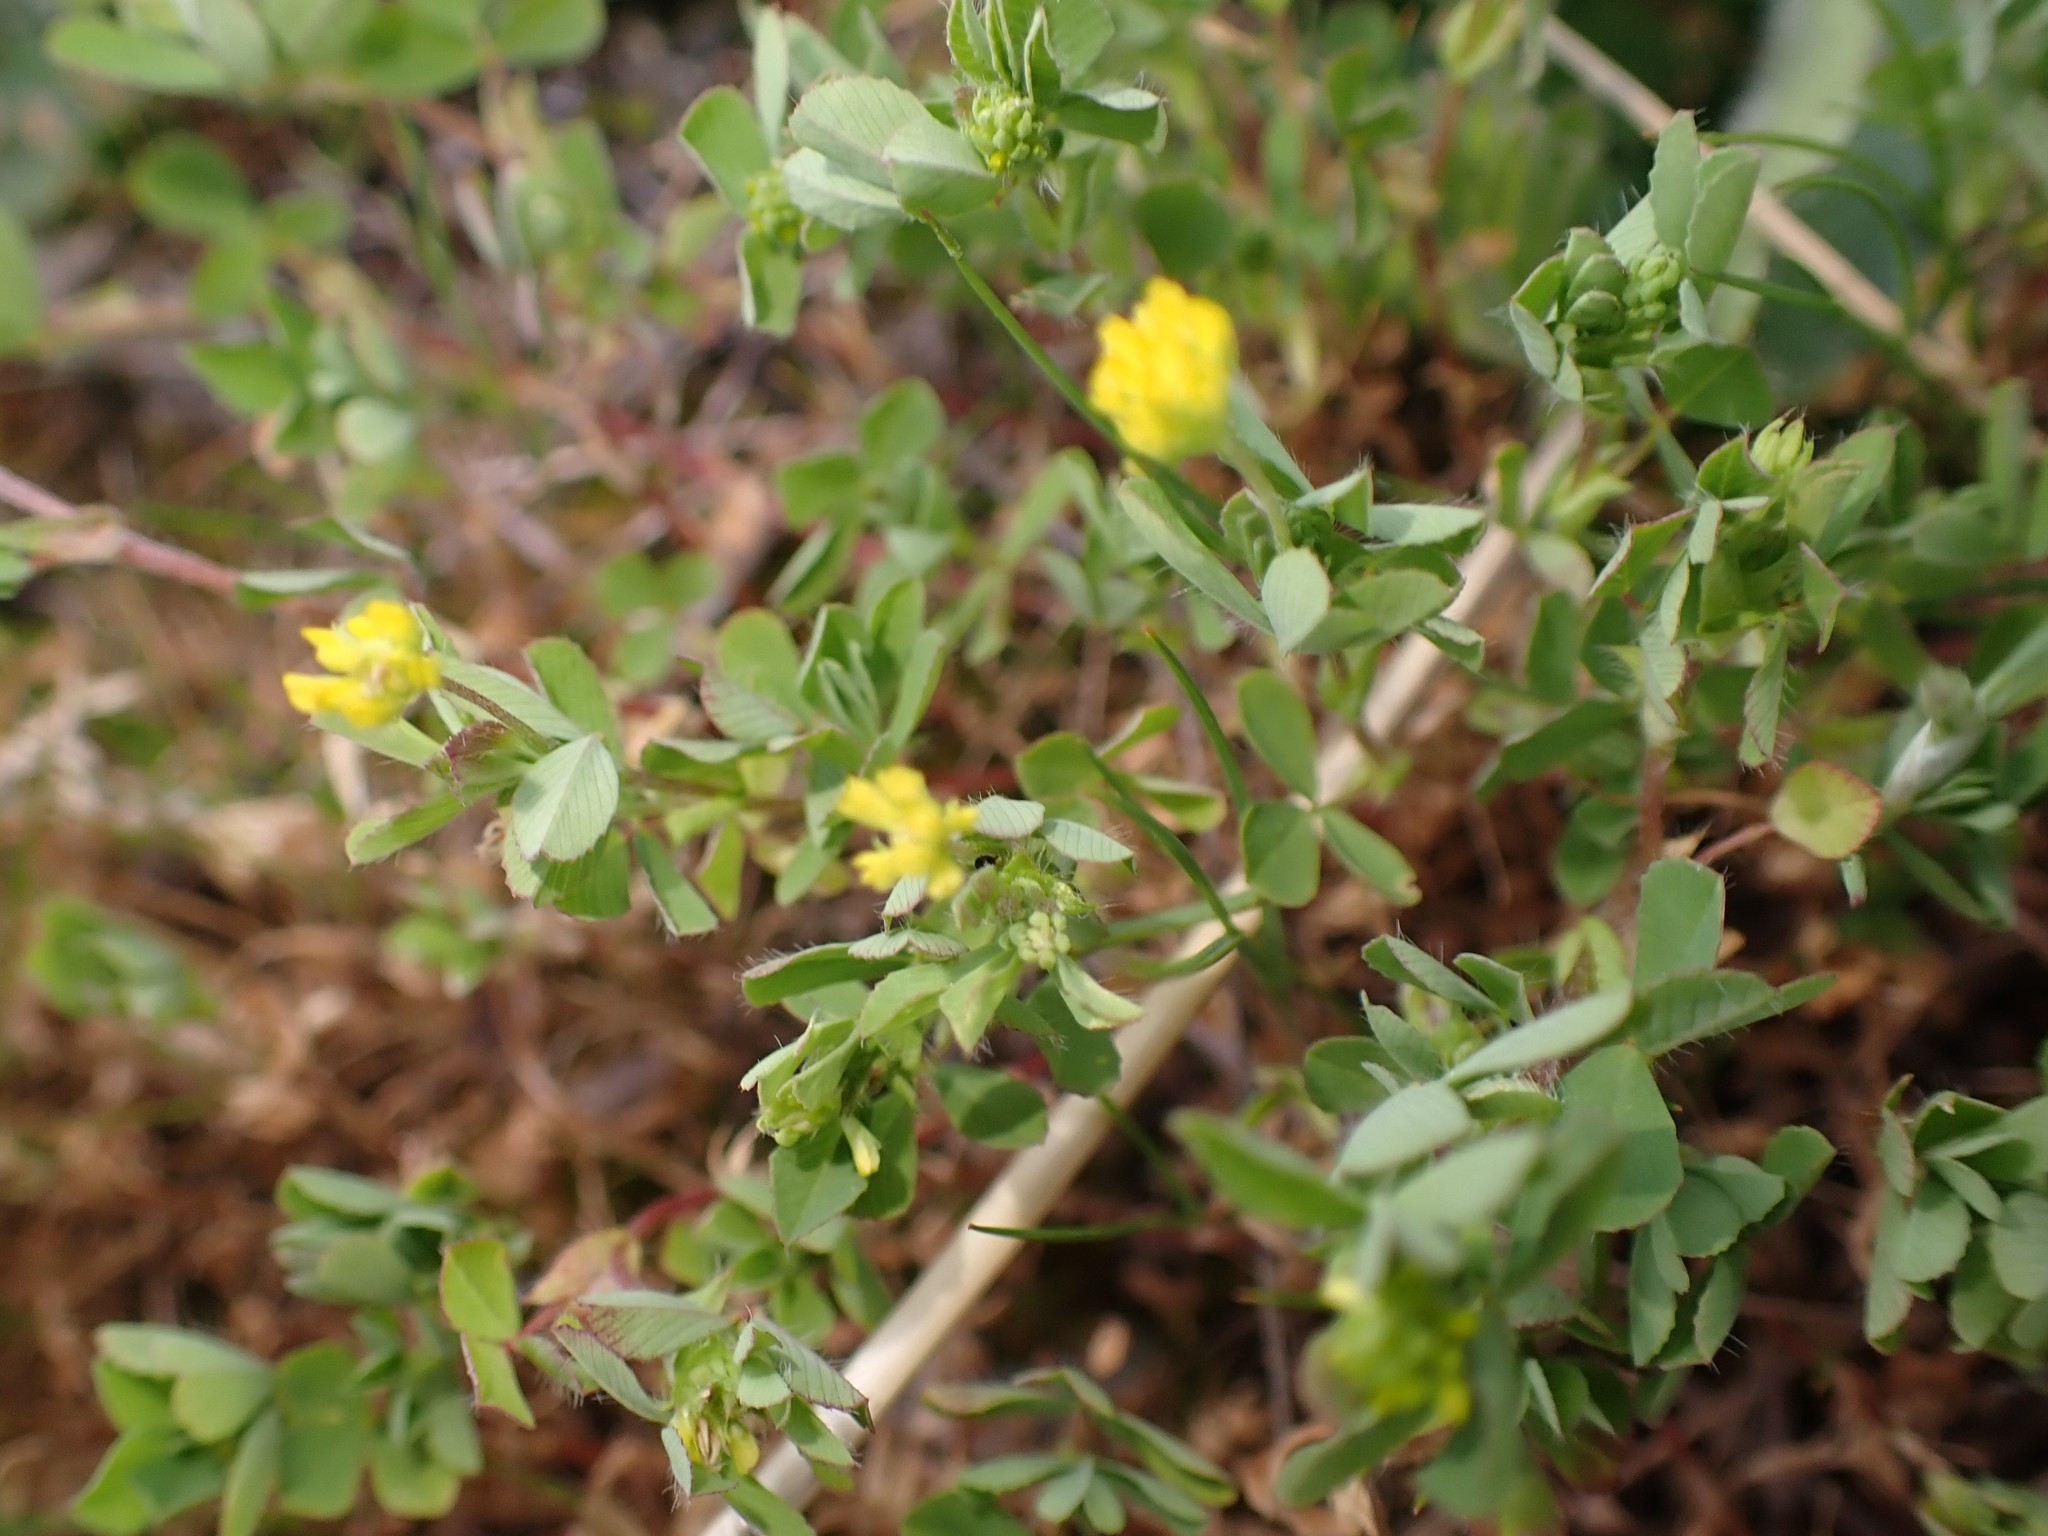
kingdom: Plantae
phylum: Tracheophyta
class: Magnoliopsida
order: Fabales
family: Fabaceae
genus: Trifolium
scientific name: Trifolium dubium
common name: Suckling clover
